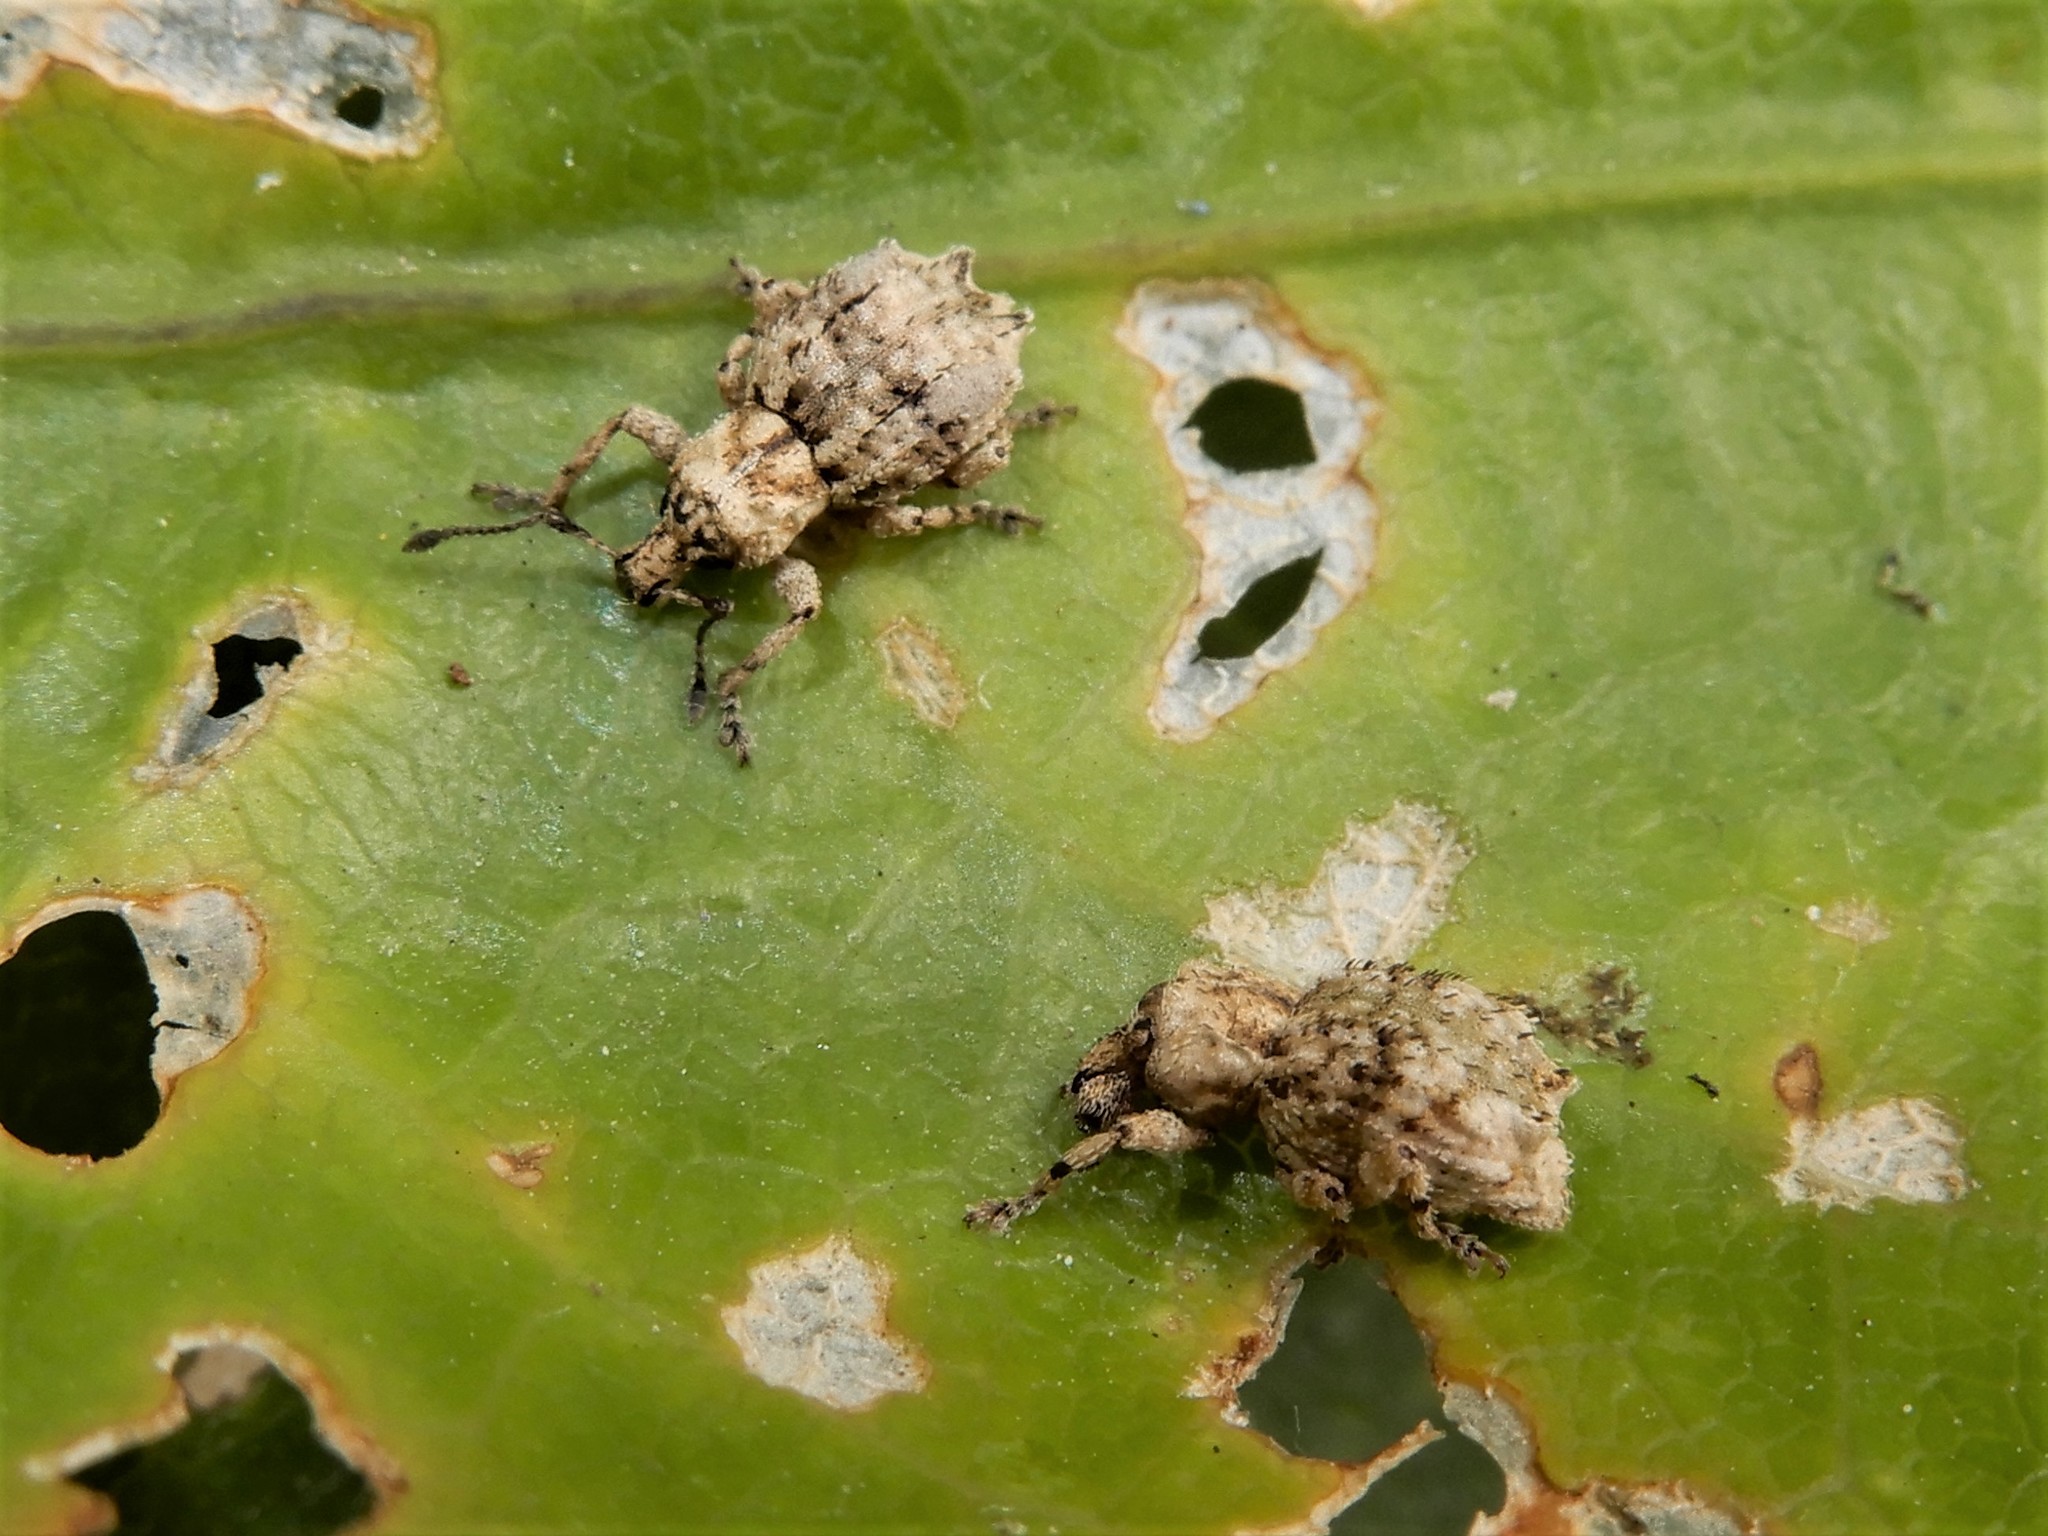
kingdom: Animalia
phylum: Arthropoda
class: Insecta
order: Coleoptera
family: Curculionidae
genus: Brachyolus
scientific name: Brachyolus punctatus
